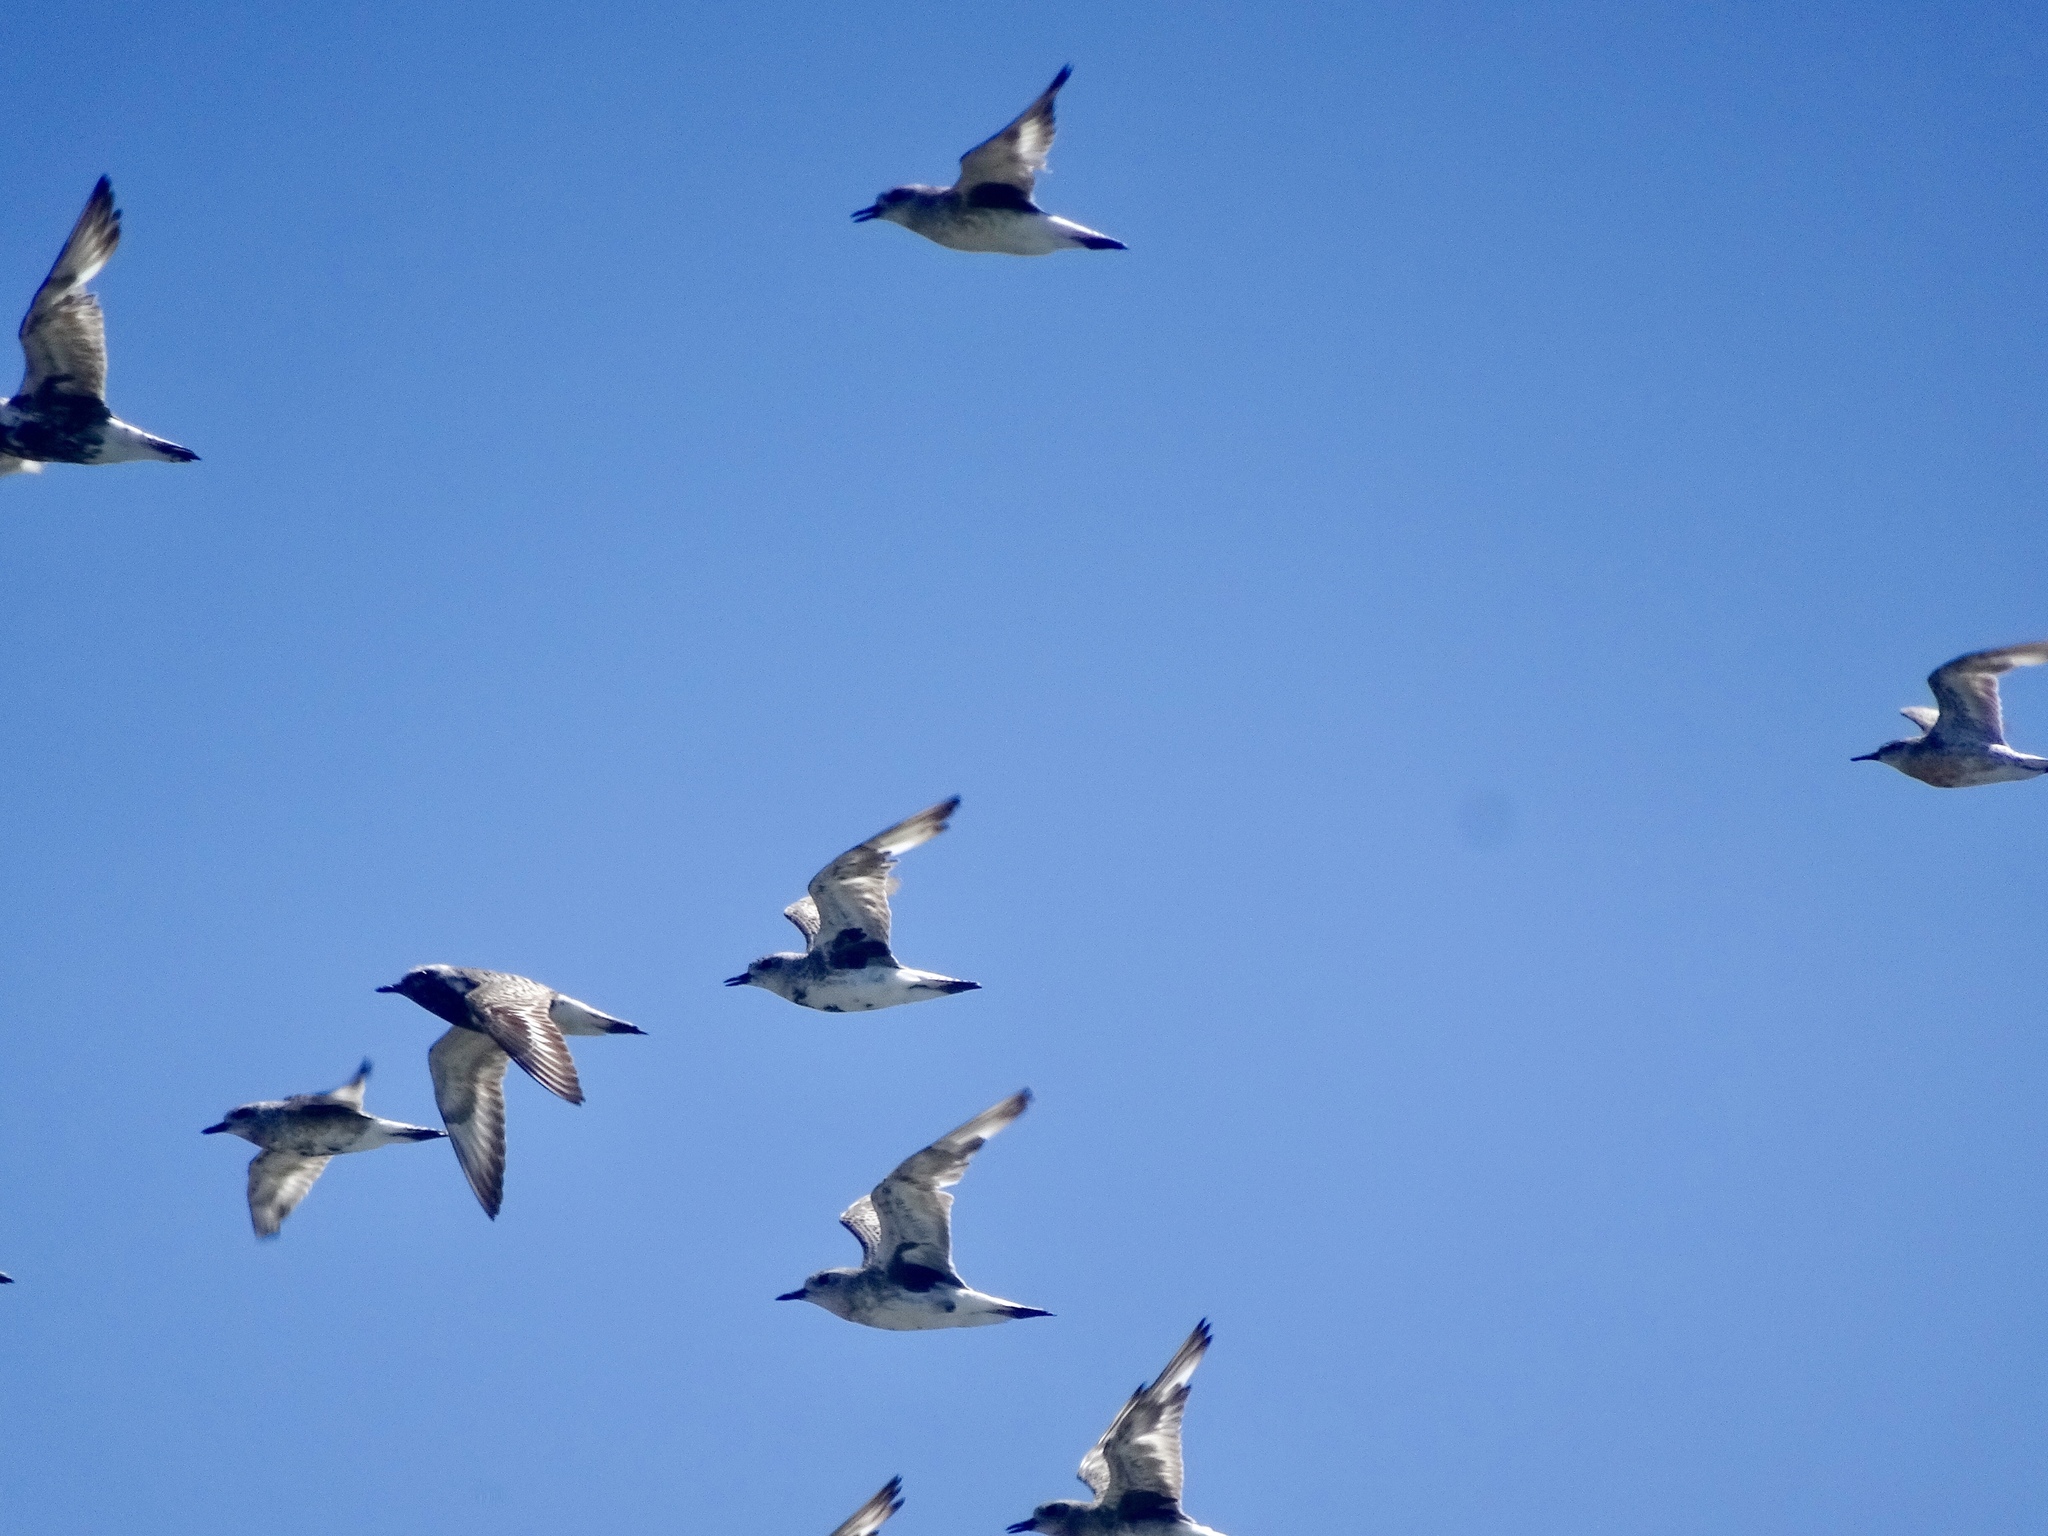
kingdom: Animalia
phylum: Chordata
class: Aves
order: Charadriiformes
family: Charadriidae
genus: Pluvialis
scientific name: Pluvialis squatarola
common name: Grey plover
